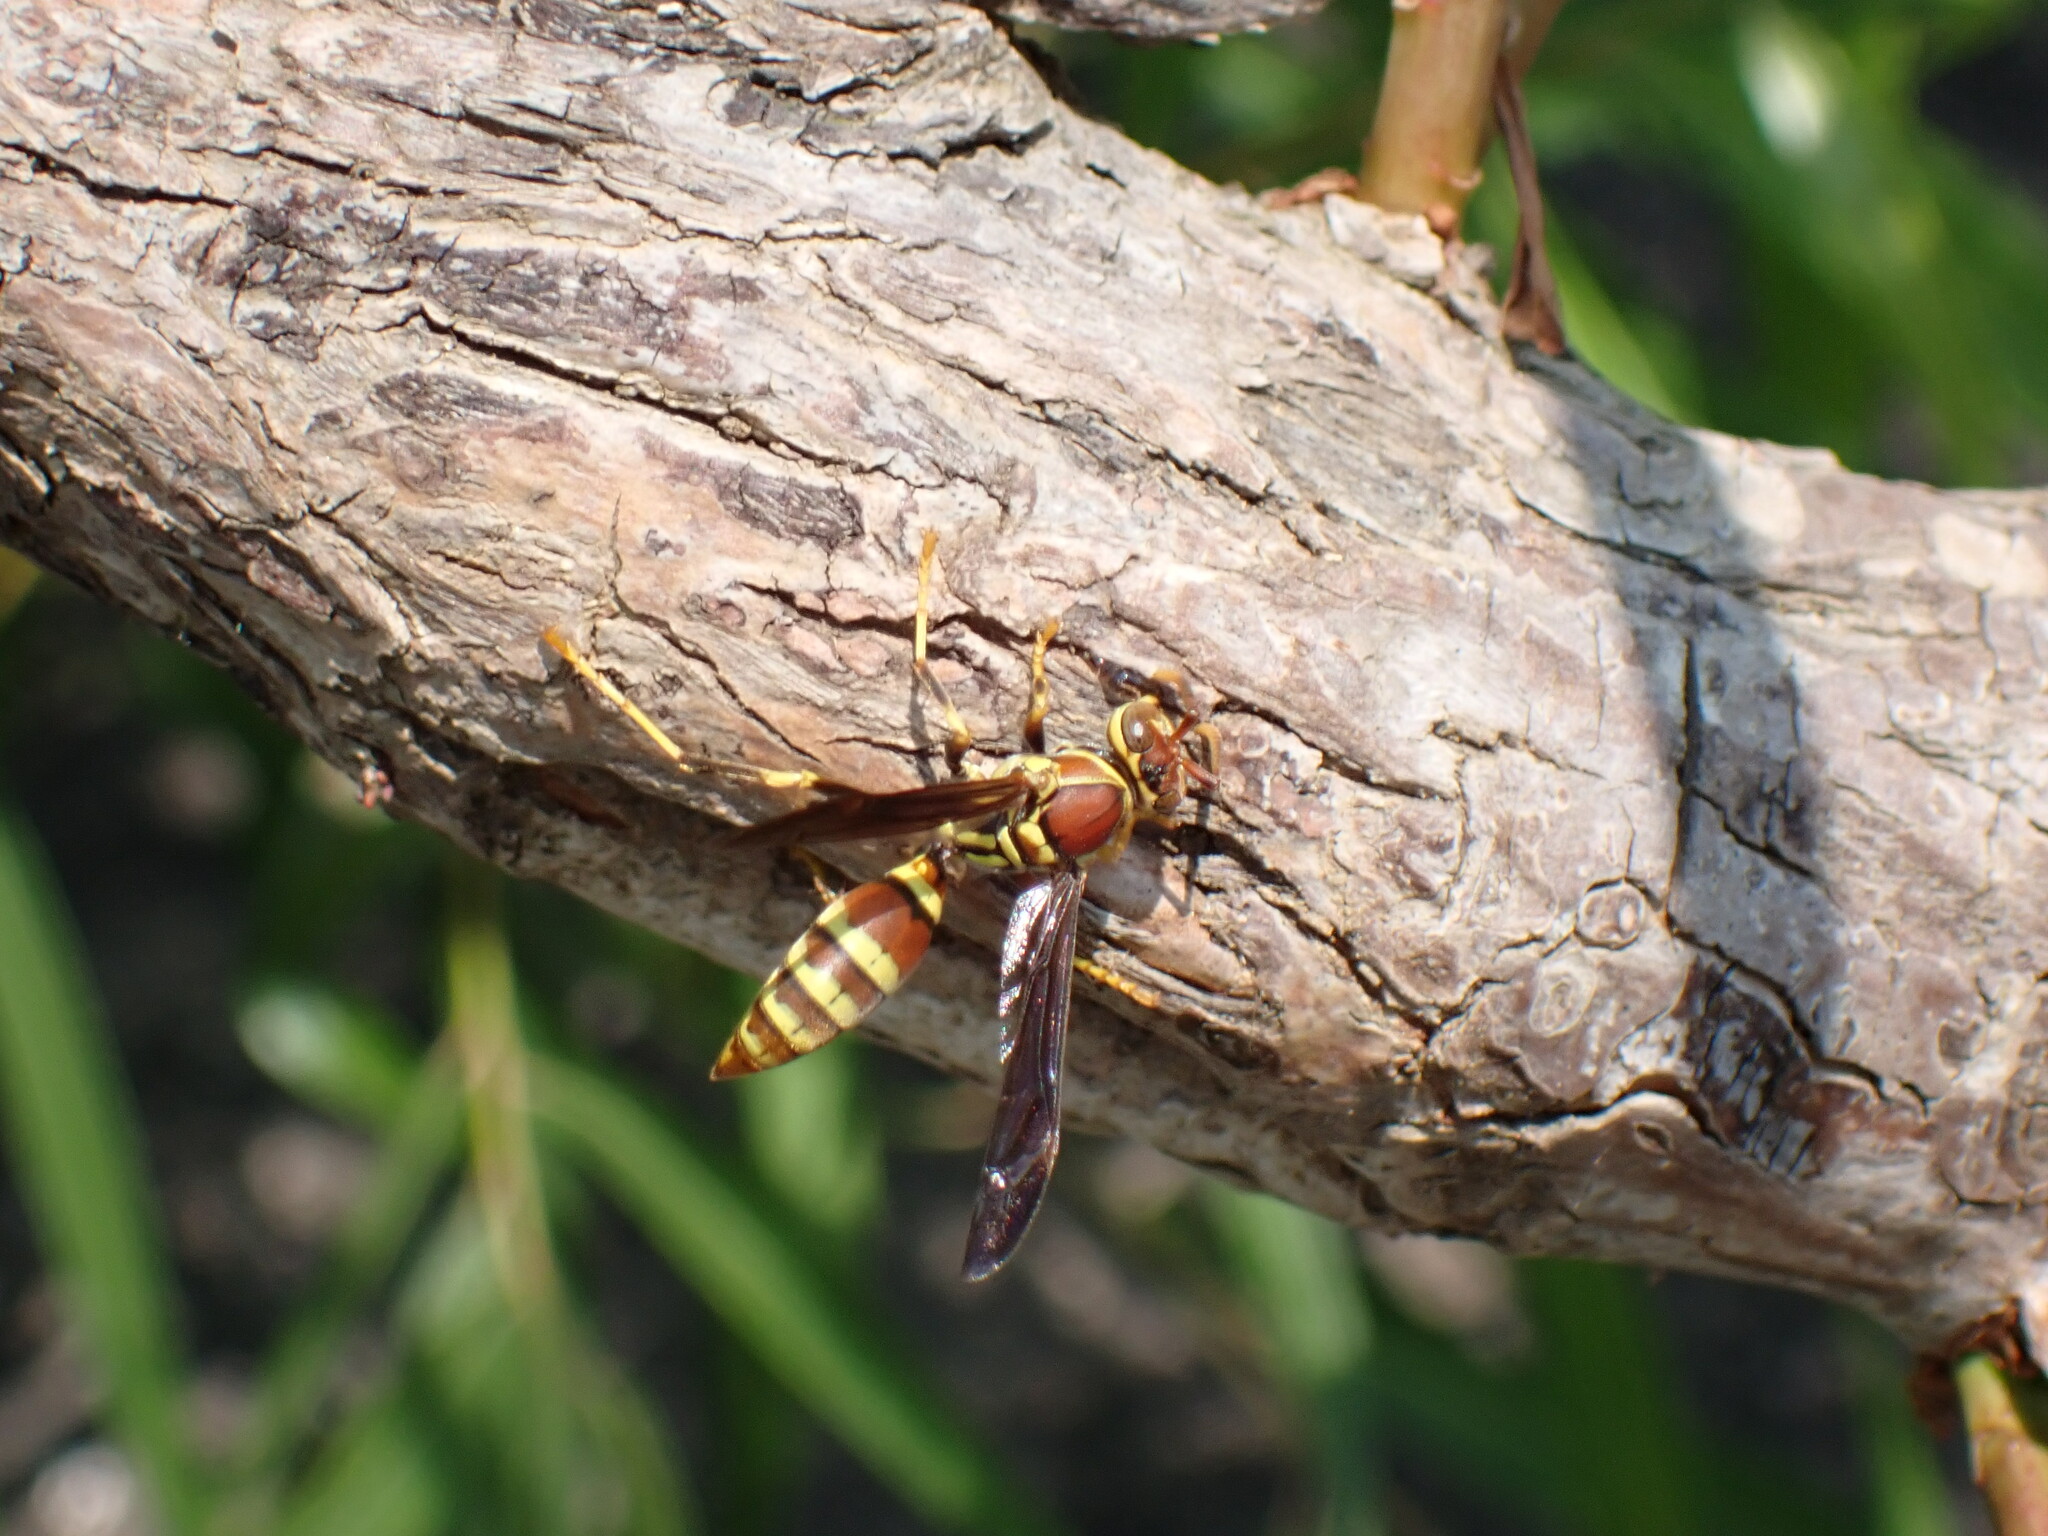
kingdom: Animalia
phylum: Arthropoda
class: Insecta
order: Hymenoptera
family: Eumenidae
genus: Polistes
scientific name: Polistes exclamans
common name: Paper wasp
